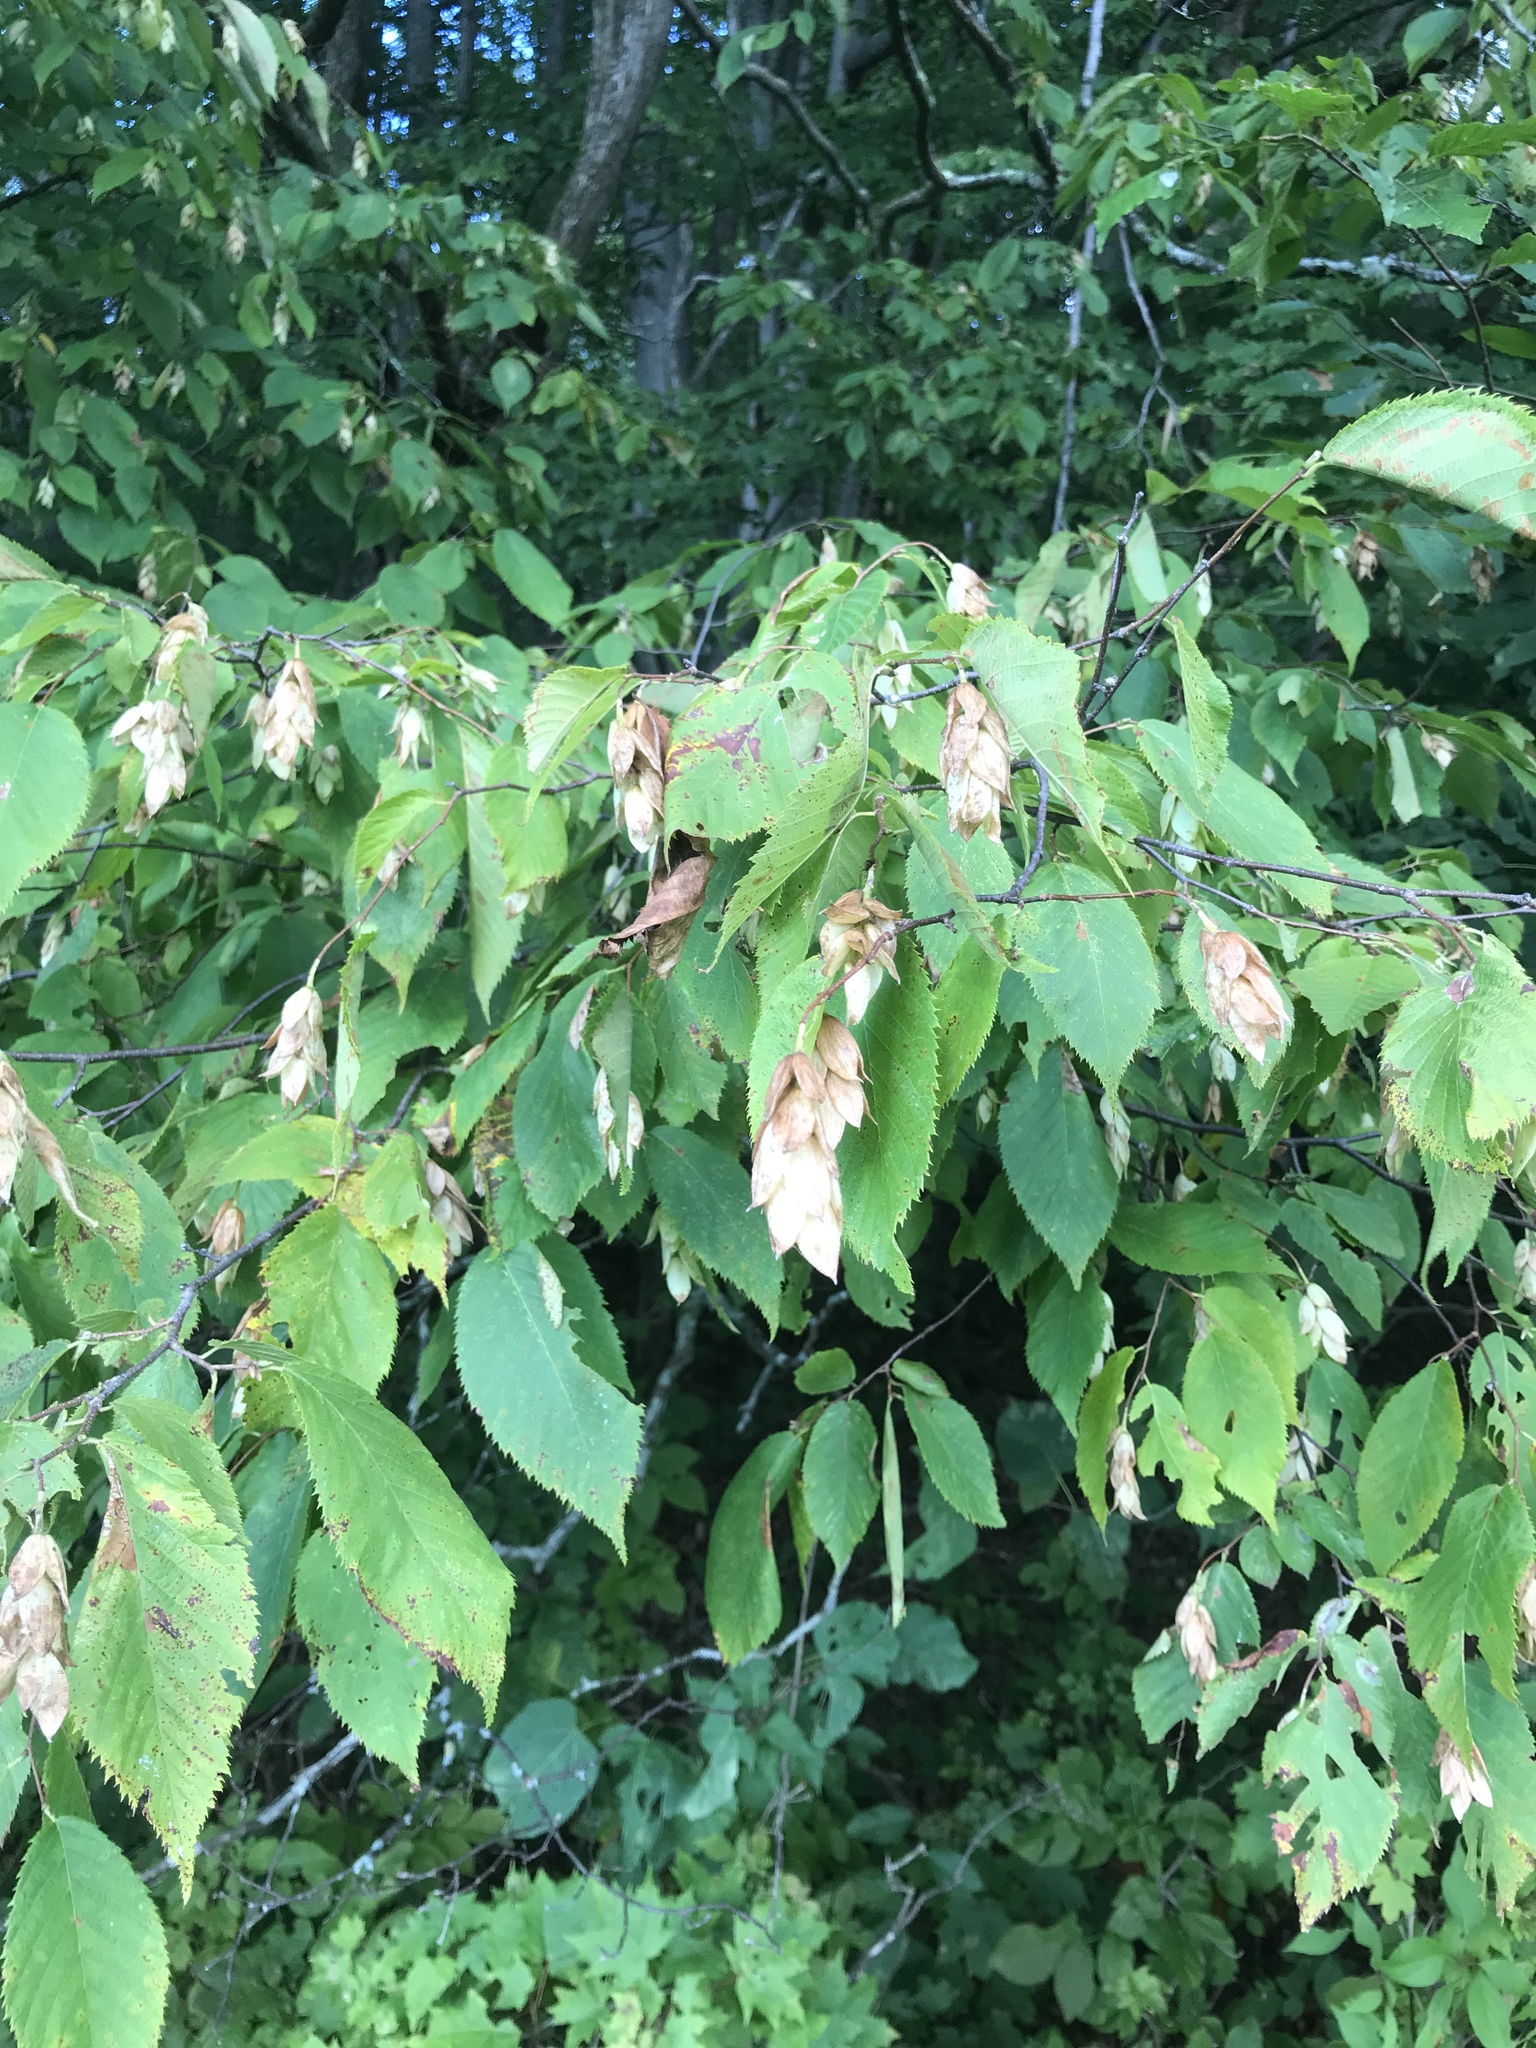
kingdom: Plantae
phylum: Tracheophyta
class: Magnoliopsida
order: Fagales
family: Betulaceae
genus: Ostrya
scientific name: Ostrya virginiana
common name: Ironwood
